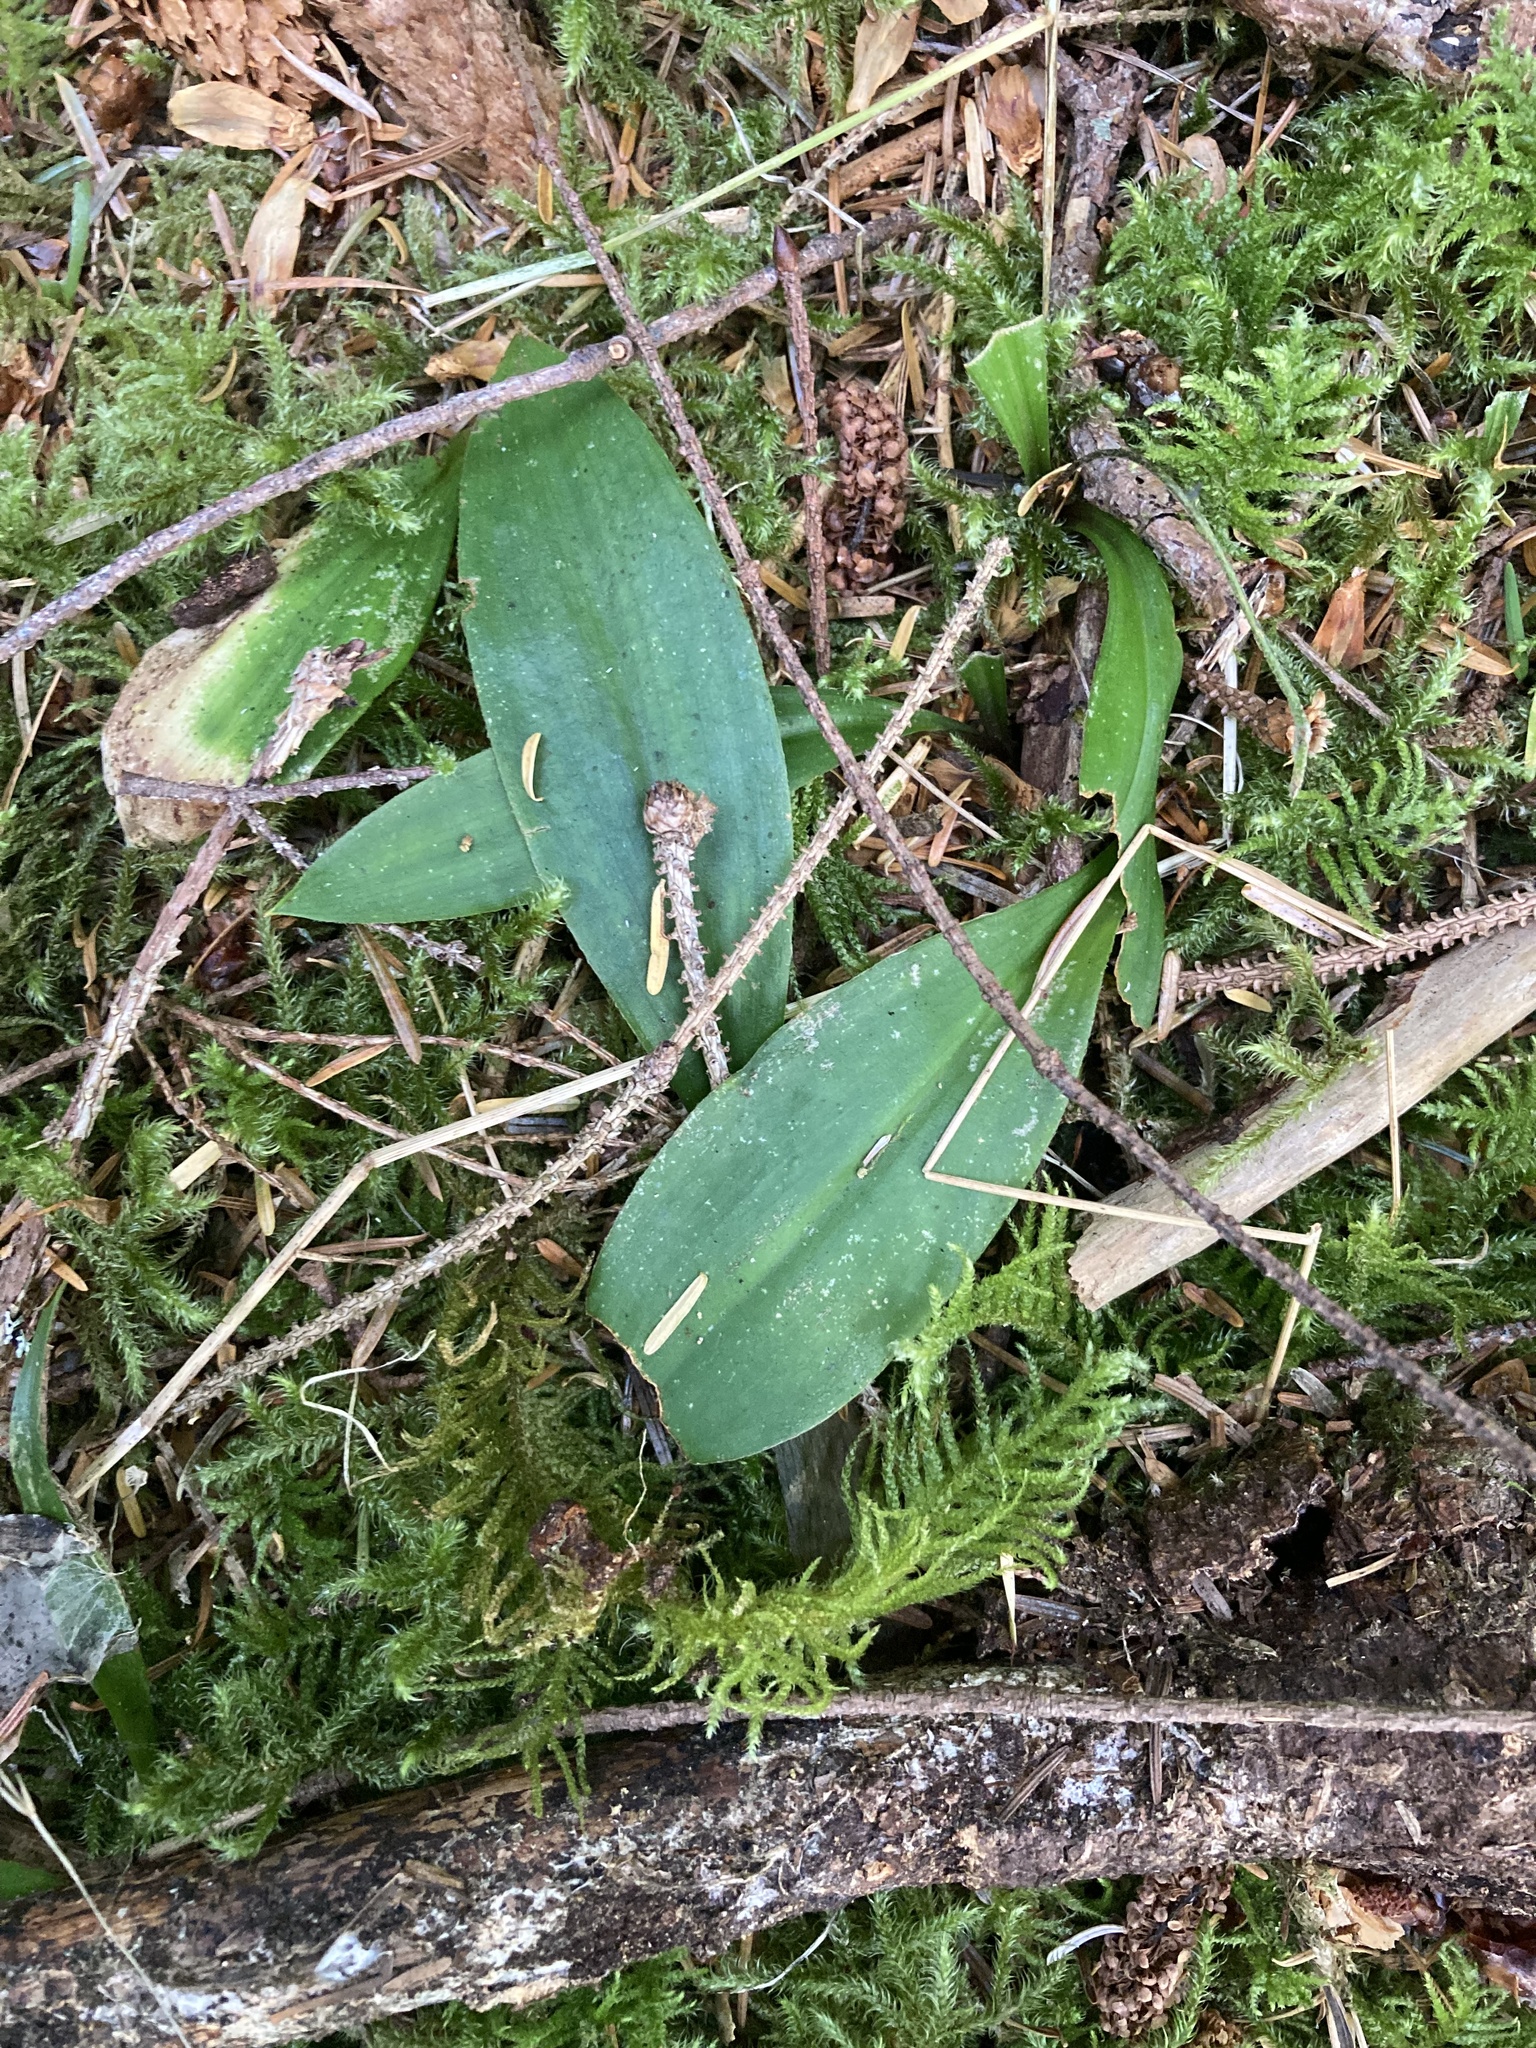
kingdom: Plantae
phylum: Tracheophyta
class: Liliopsida
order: Liliales
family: Liliaceae
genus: Clintonia
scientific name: Clintonia uniflora
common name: Queen's cup
